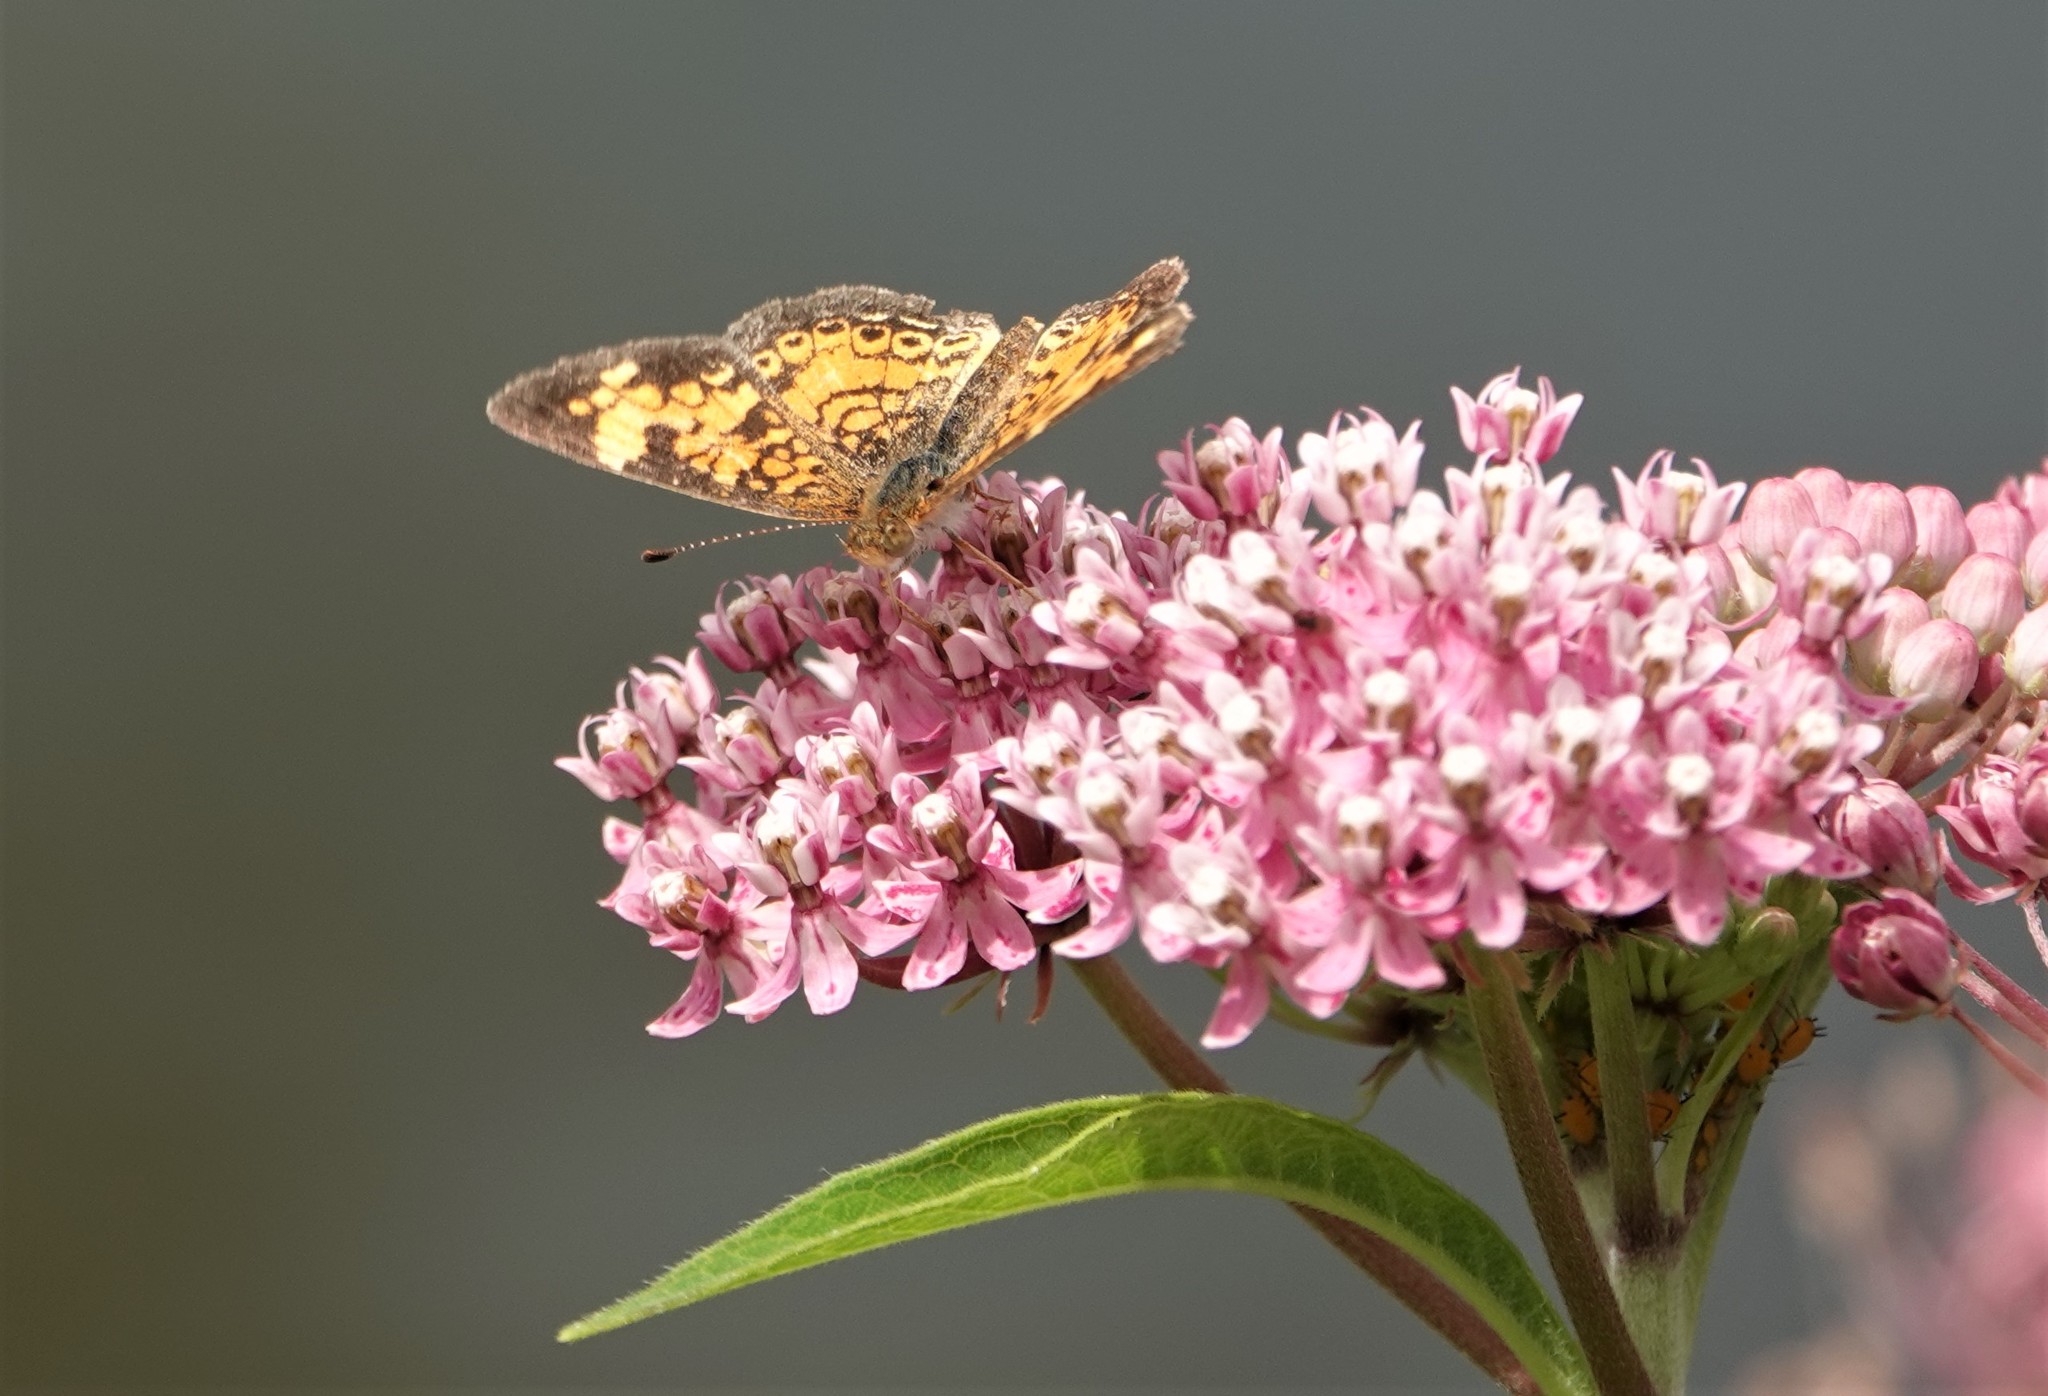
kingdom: Animalia
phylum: Arthropoda
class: Insecta
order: Lepidoptera
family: Nymphalidae
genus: Phyciodes
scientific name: Phyciodes tharos
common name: Pearl crescent
